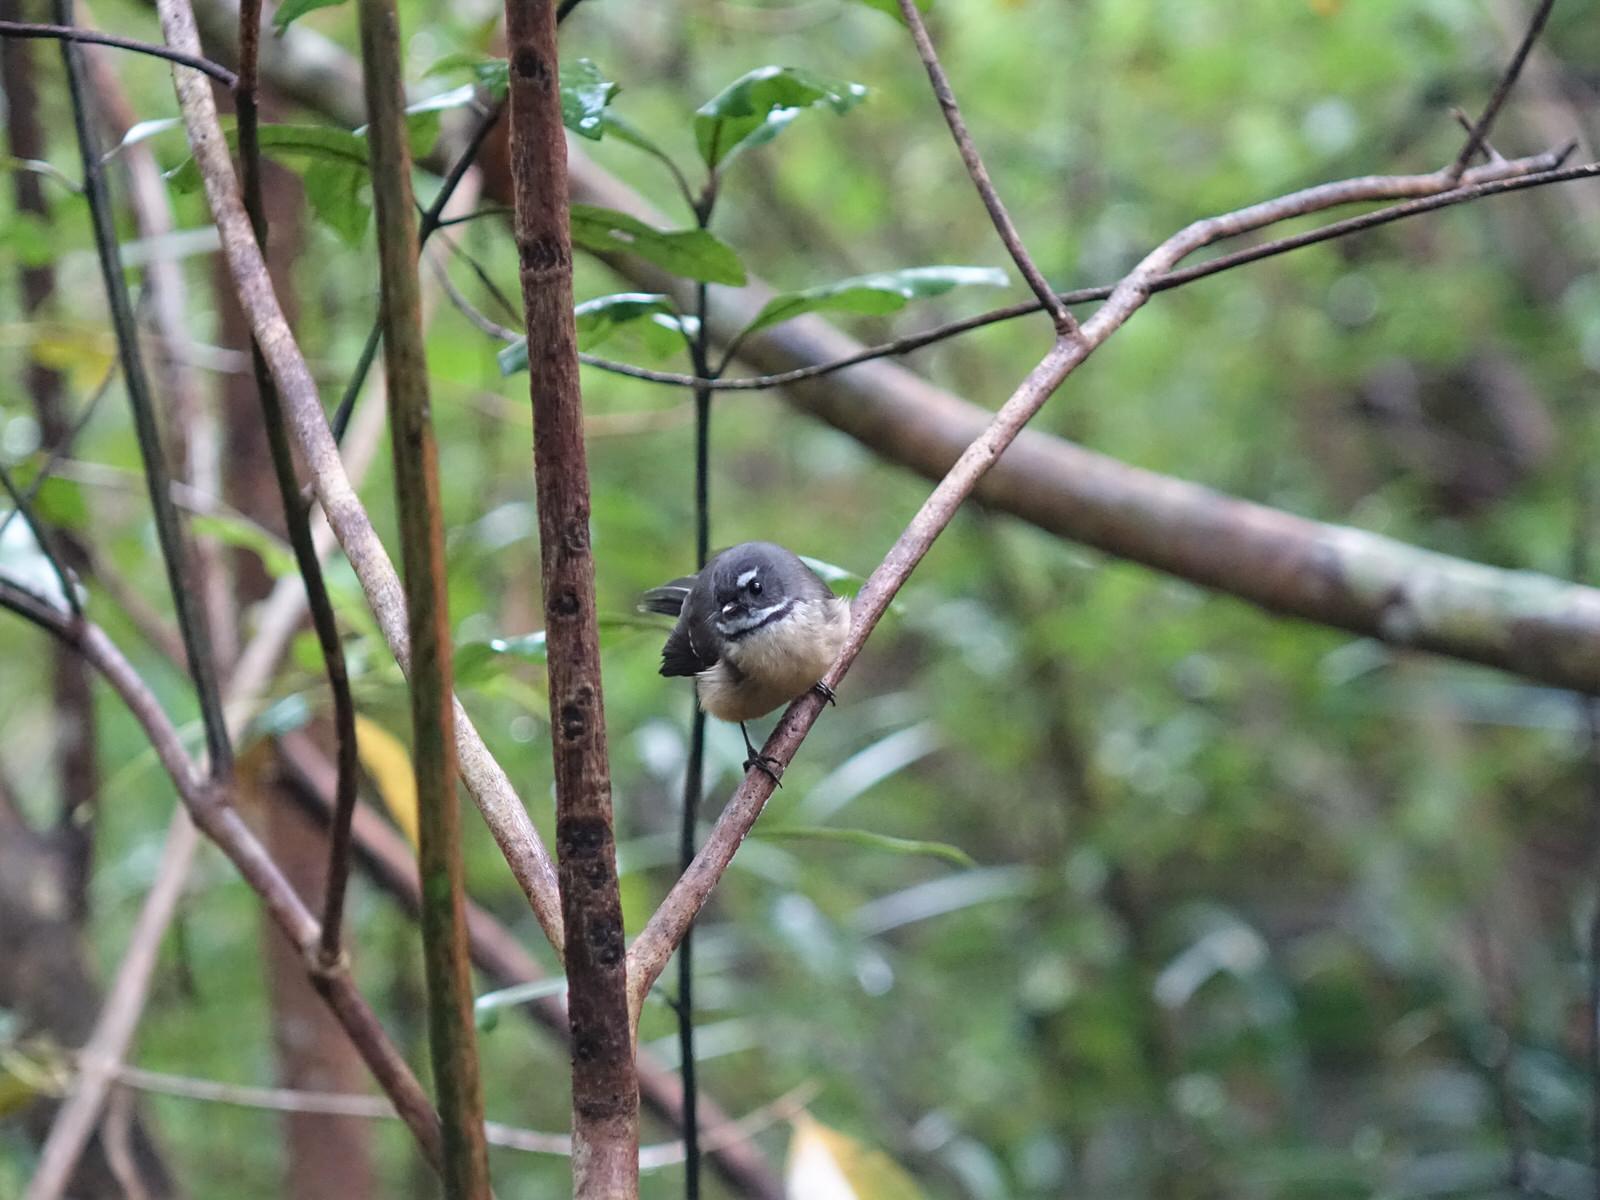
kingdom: Animalia
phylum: Chordata
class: Aves
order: Passeriformes
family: Rhipiduridae
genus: Rhipidura
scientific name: Rhipidura fuliginosa
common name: New zealand fantail
